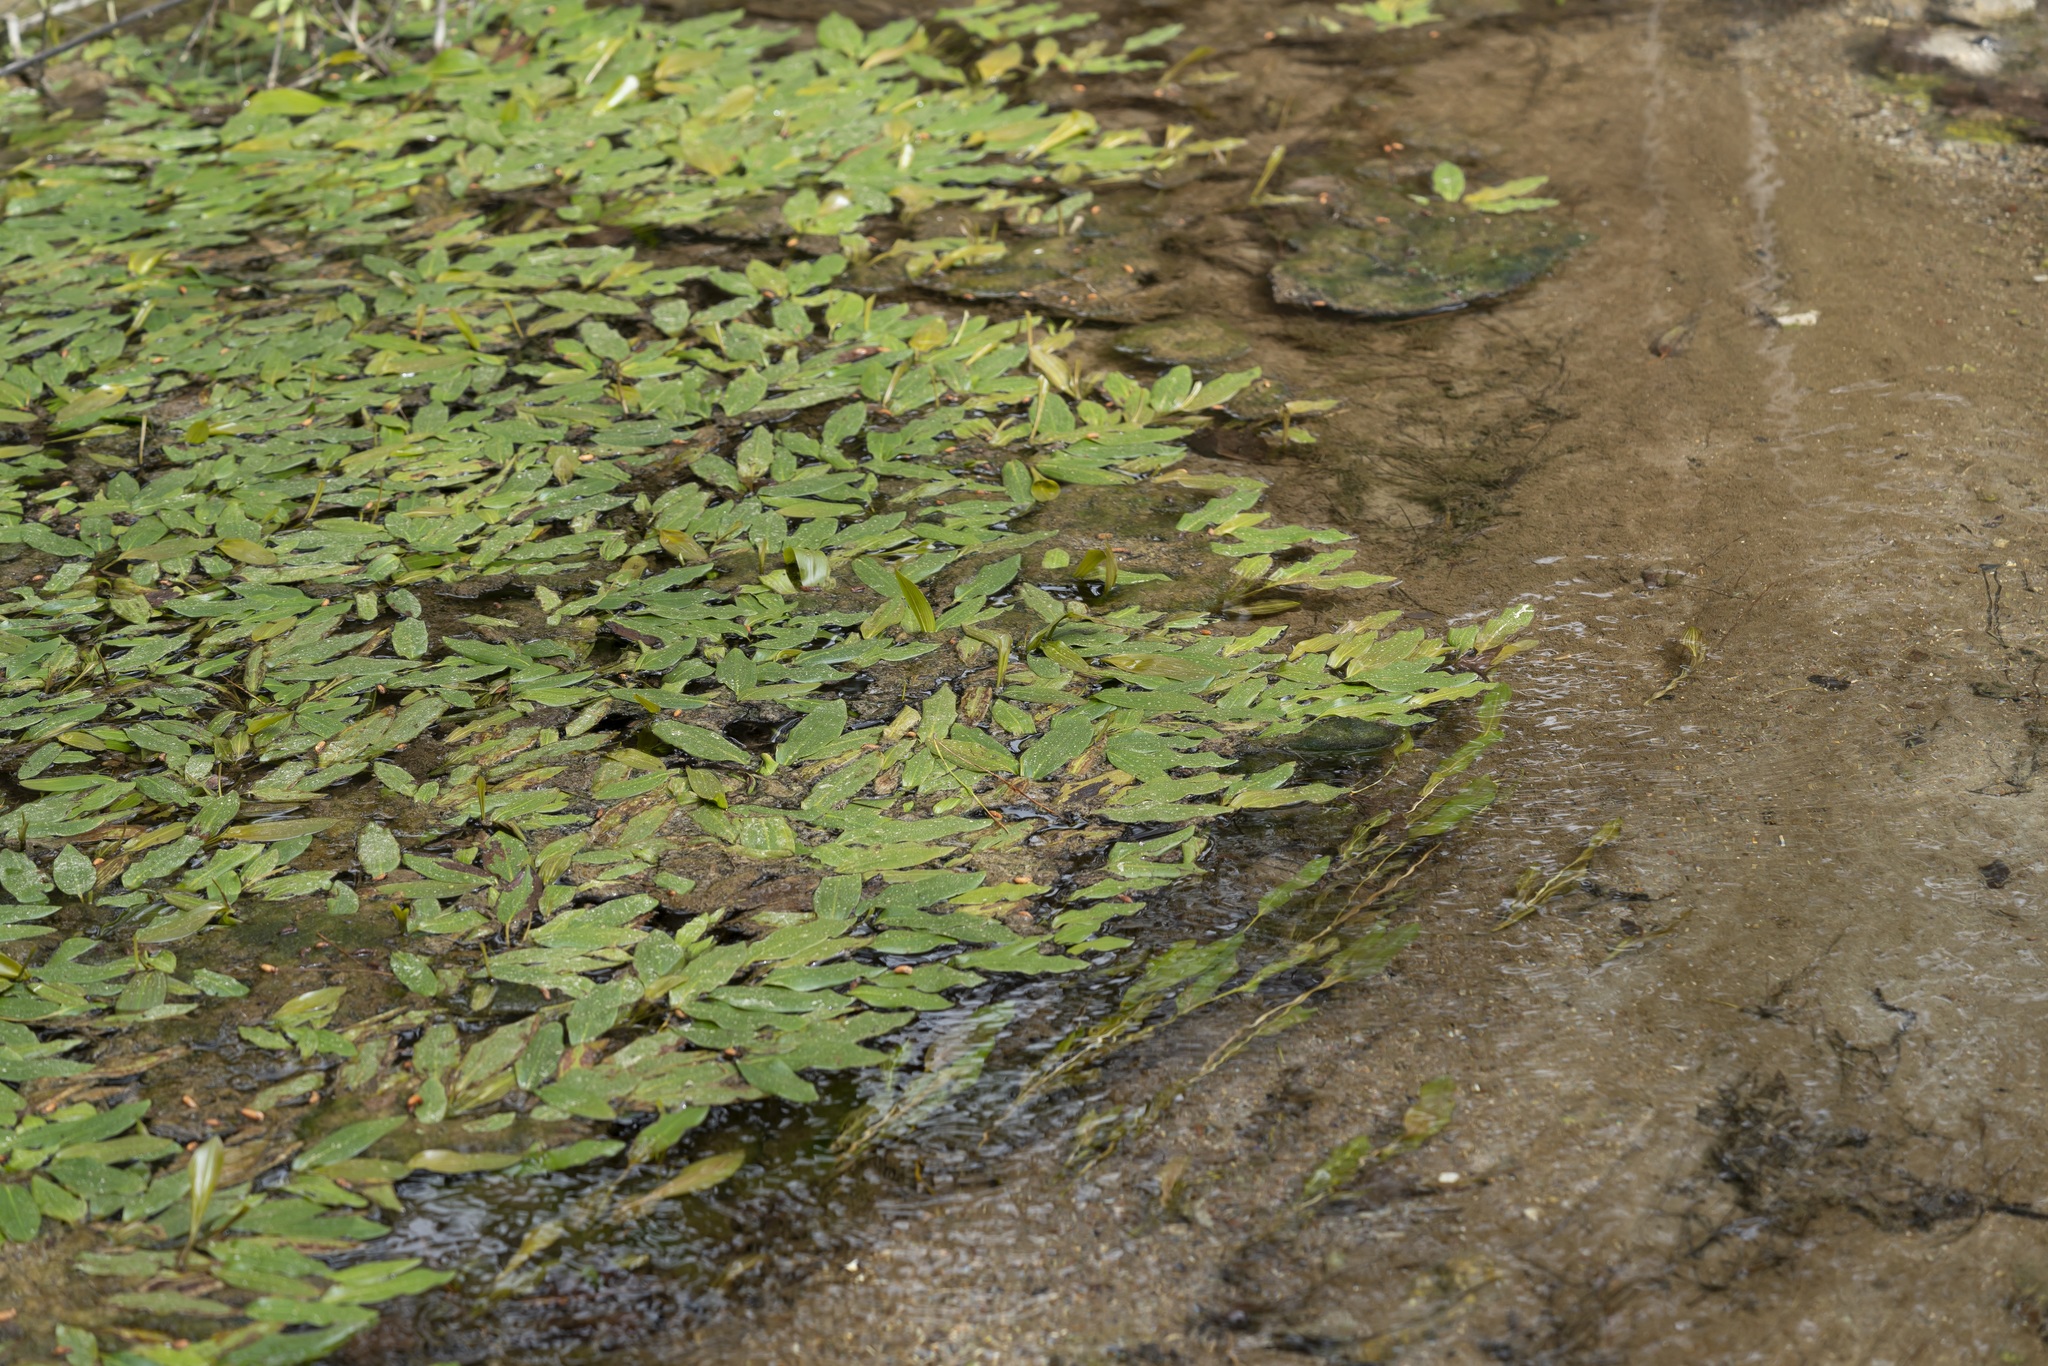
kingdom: Plantae
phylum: Tracheophyta
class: Liliopsida
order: Alismatales
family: Potamogetonaceae
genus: Potamogeton
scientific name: Potamogeton nodosus
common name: Loddon pondweed
